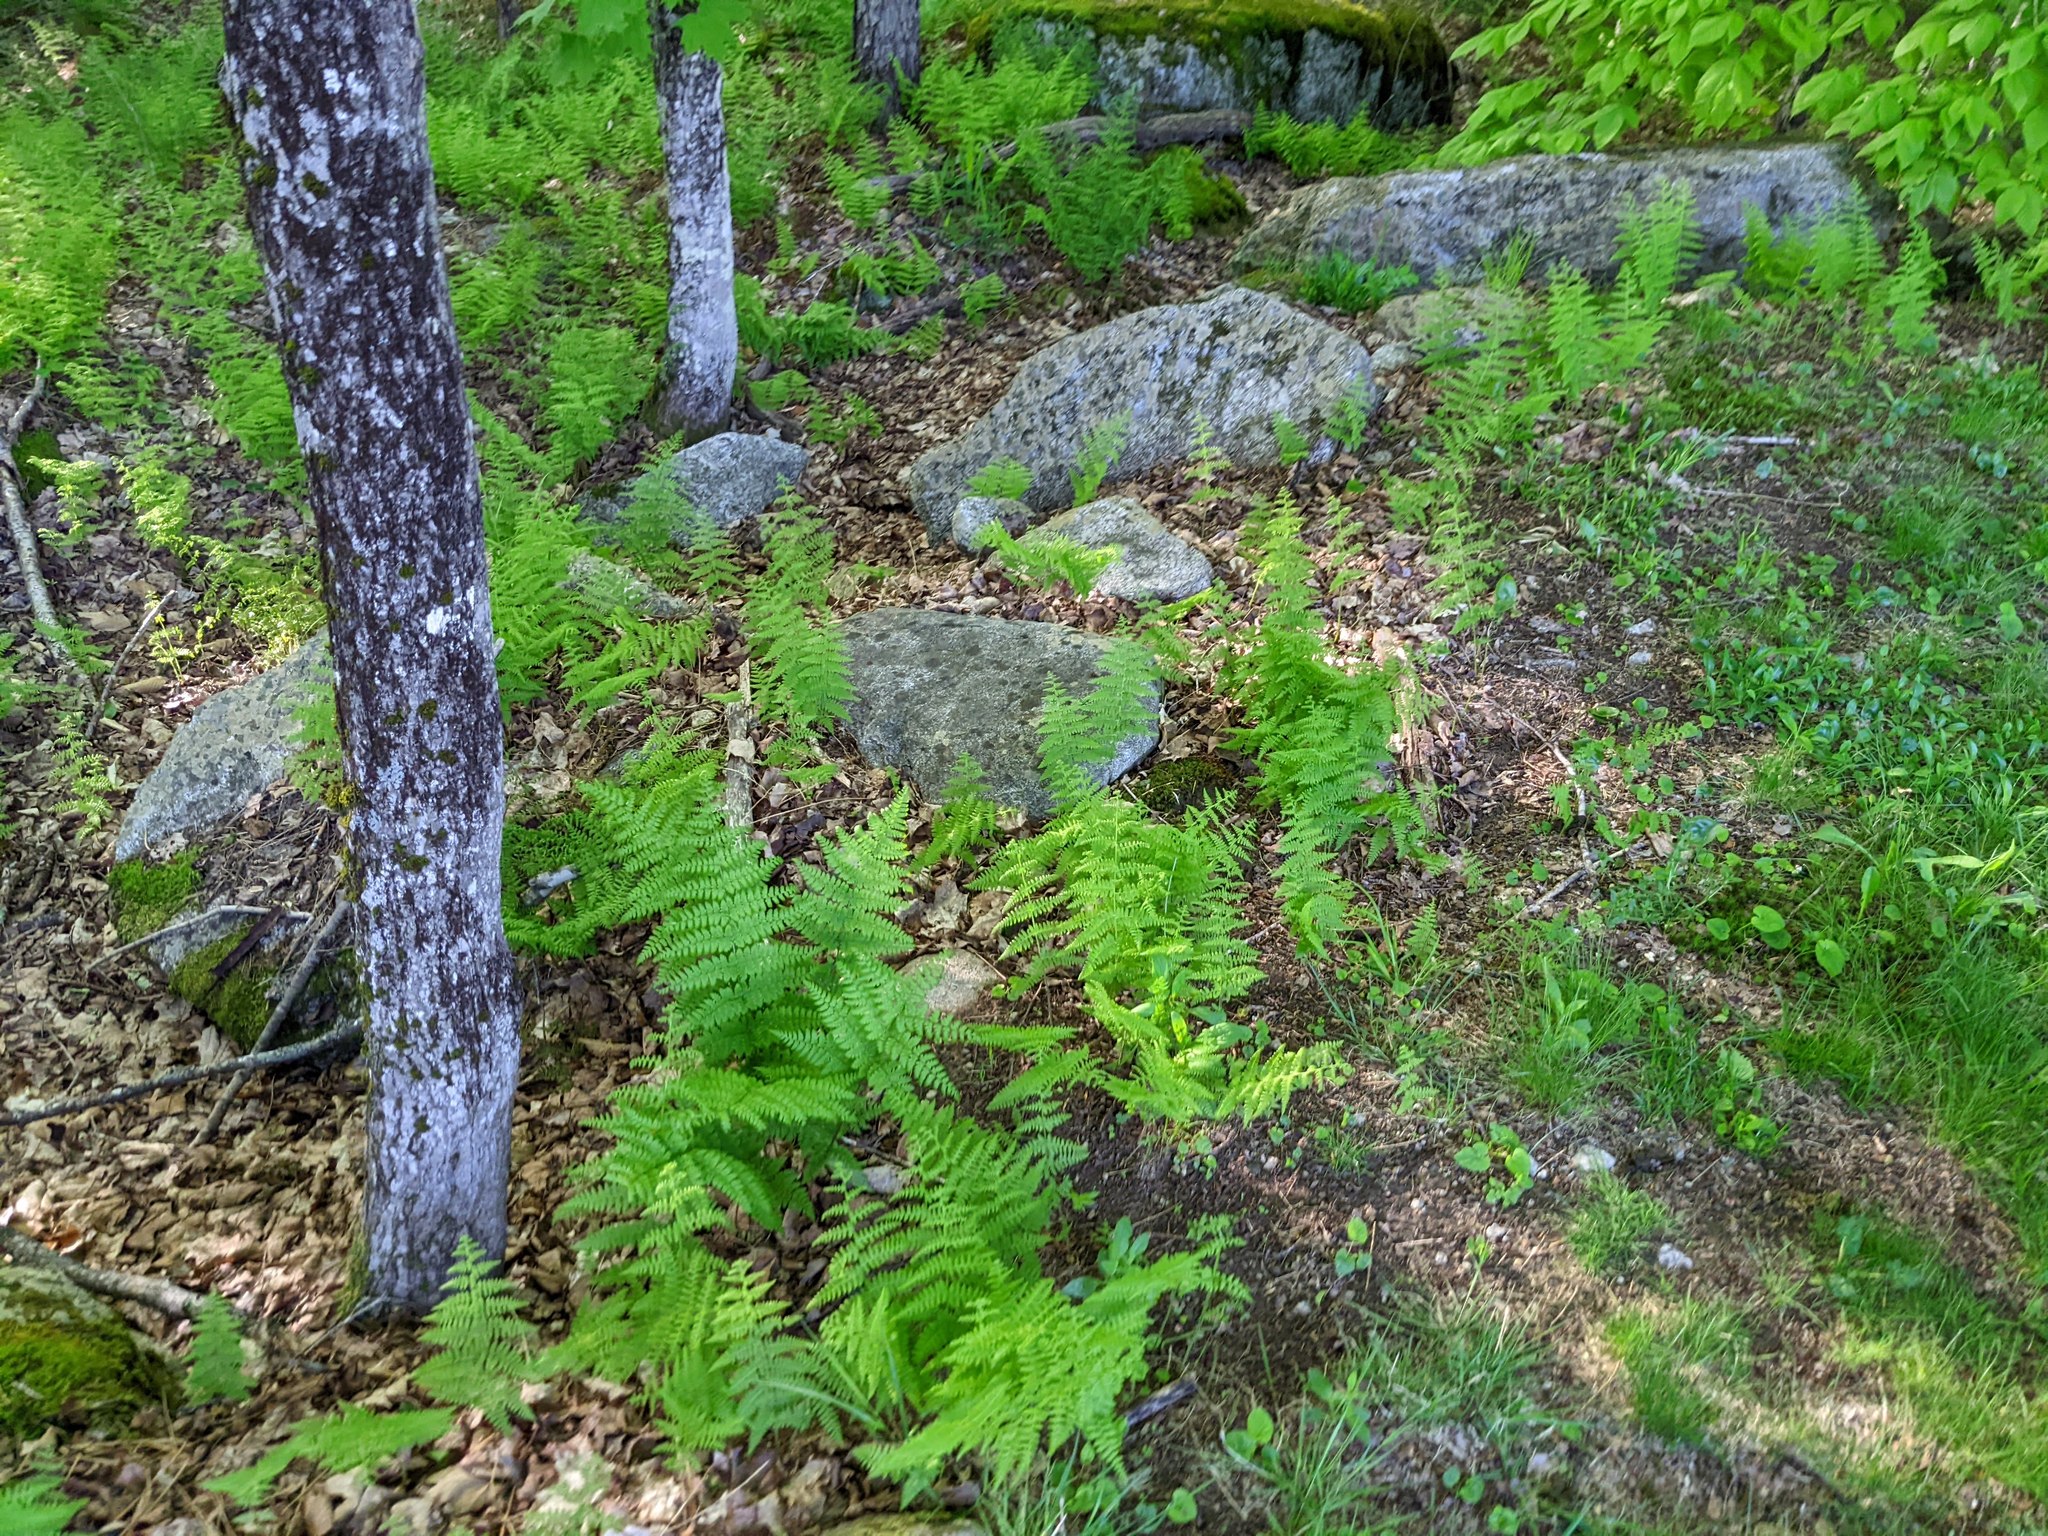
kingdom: Plantae
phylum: Tracheophyta
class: Polypodiopsida
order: Polypodiales
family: Dennstaedtiaceae
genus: Sitobolium
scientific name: Sitobolium punctilobum
